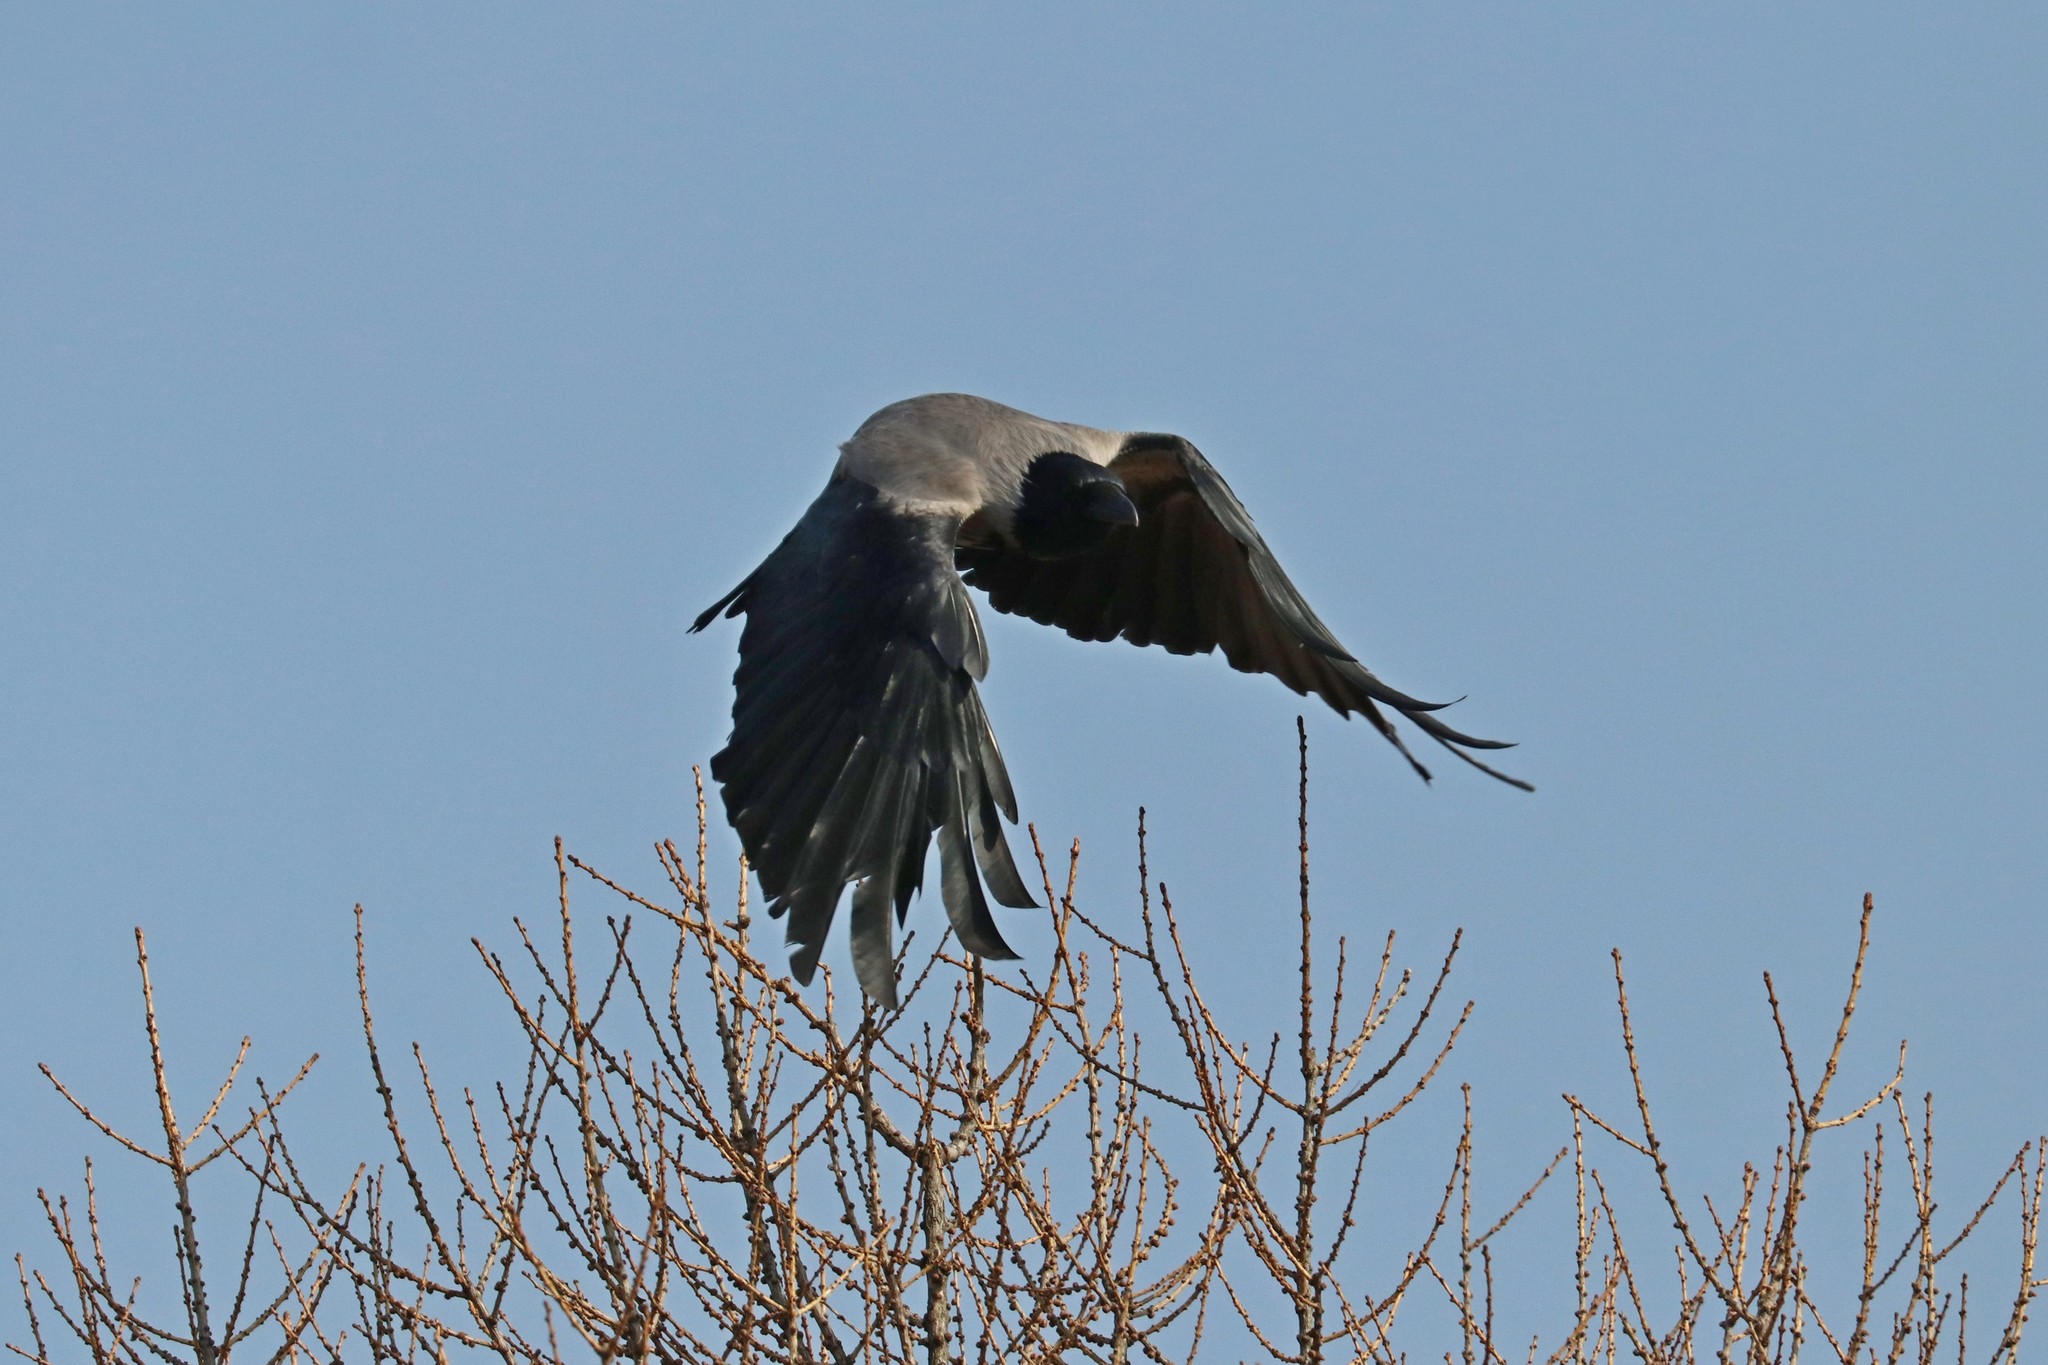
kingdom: Animalia
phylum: Chordata
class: Aves
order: Passeriformes
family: Corvidae
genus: Corvus
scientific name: Corvus cornix
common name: Hooded crow
